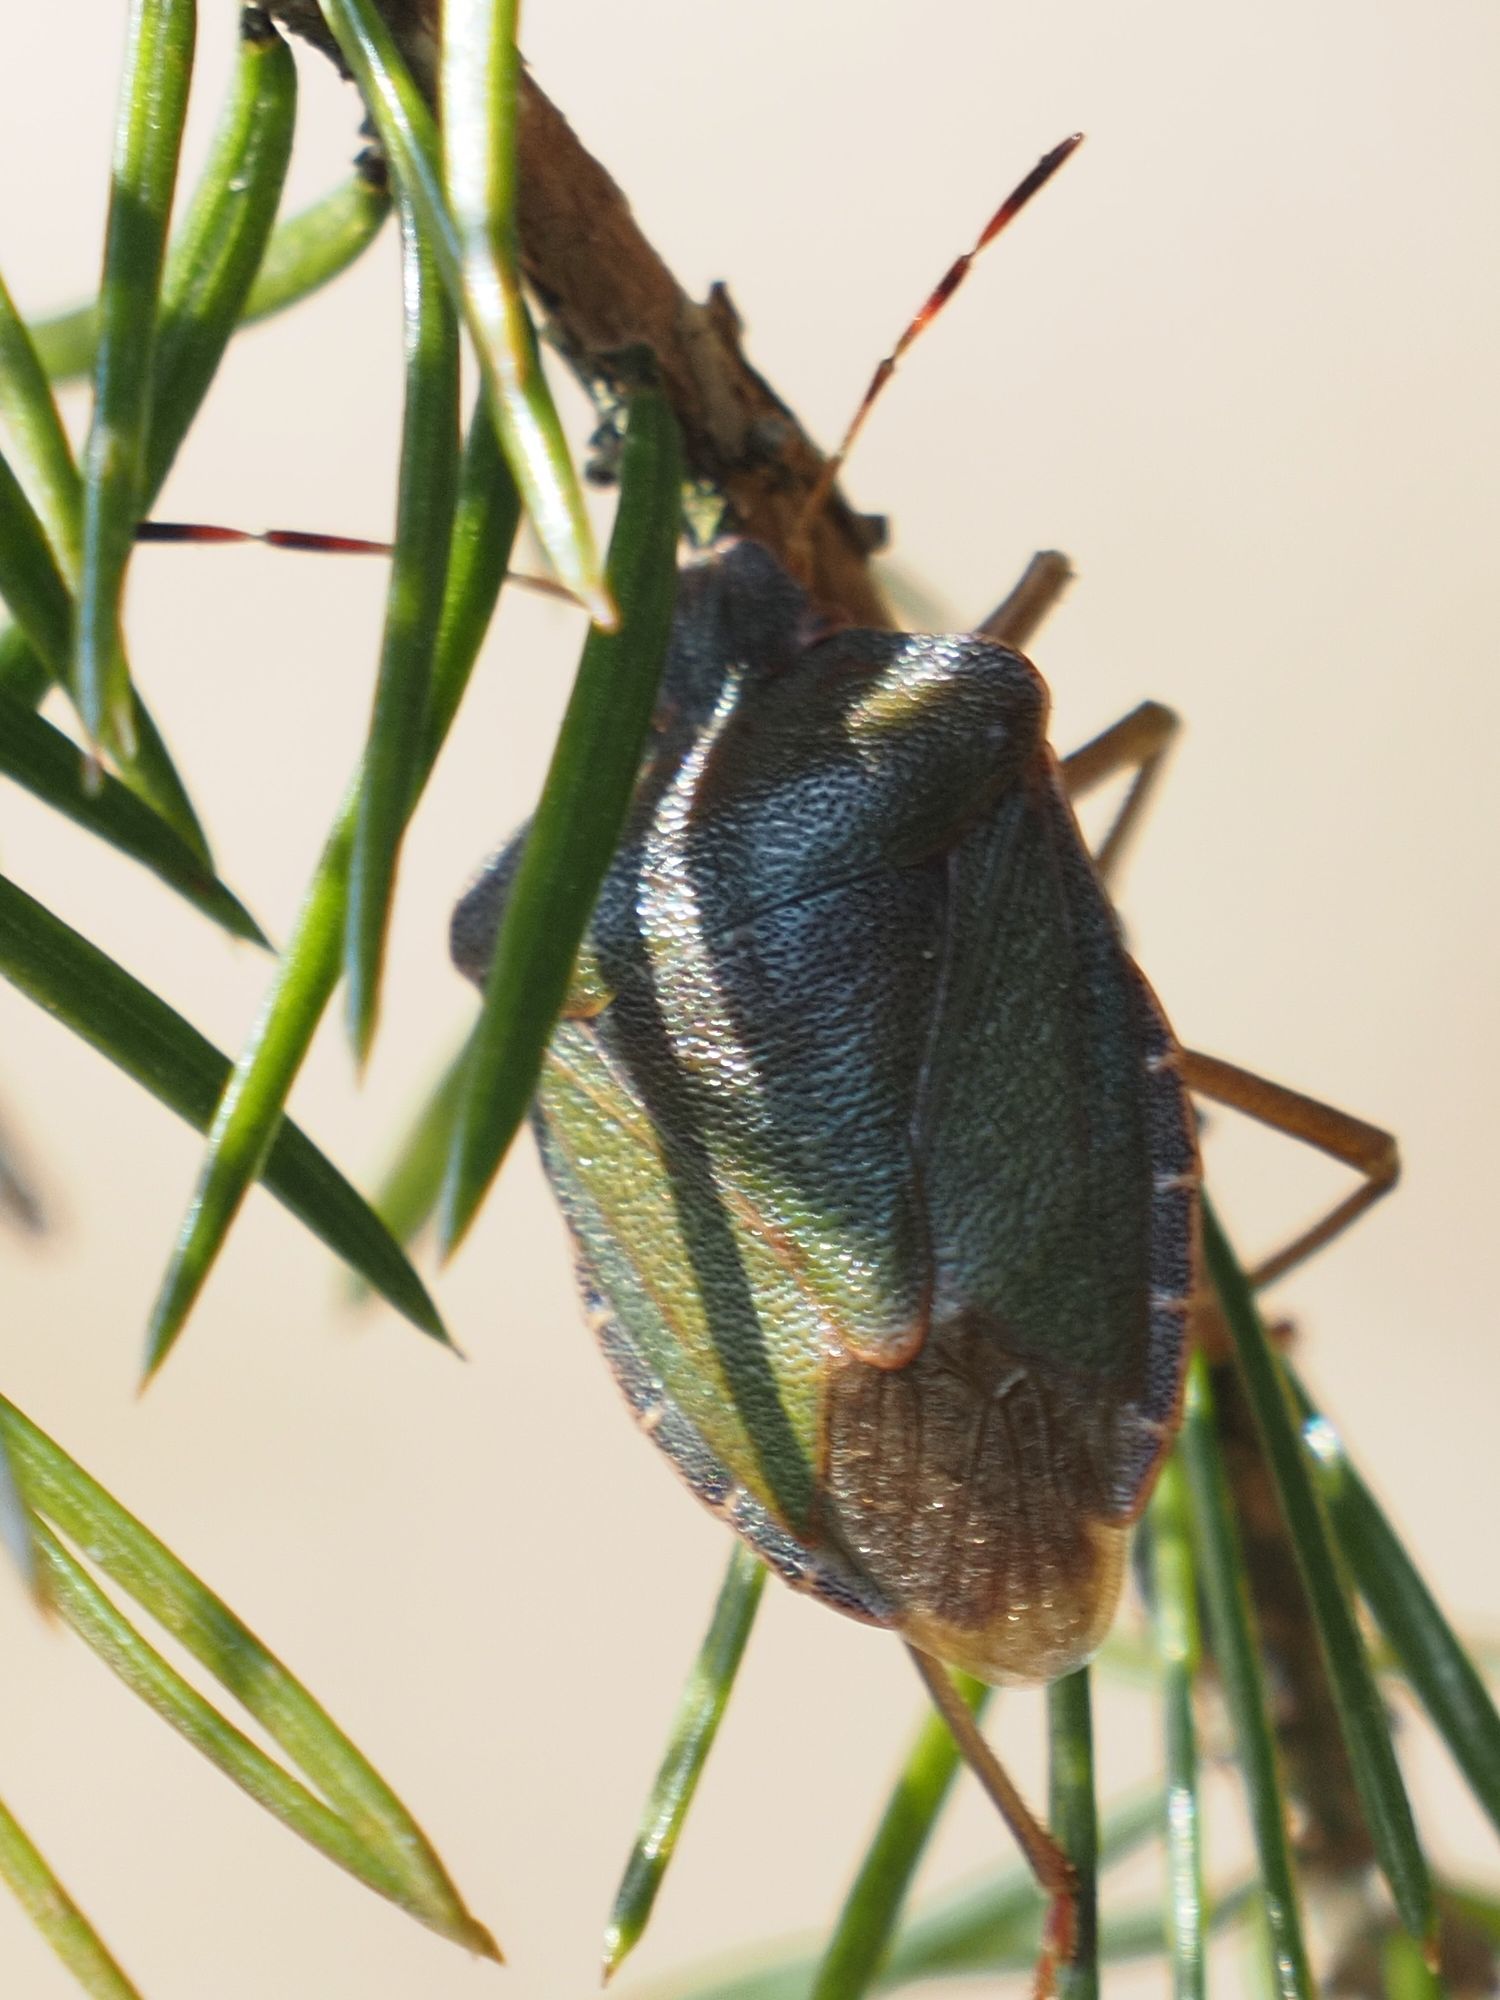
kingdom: Animalia
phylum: Arthropoda
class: Insecta
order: Hemiptera
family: Pentatomidae
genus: Palomena
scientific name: Palomena prasina
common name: Green shieldbug
